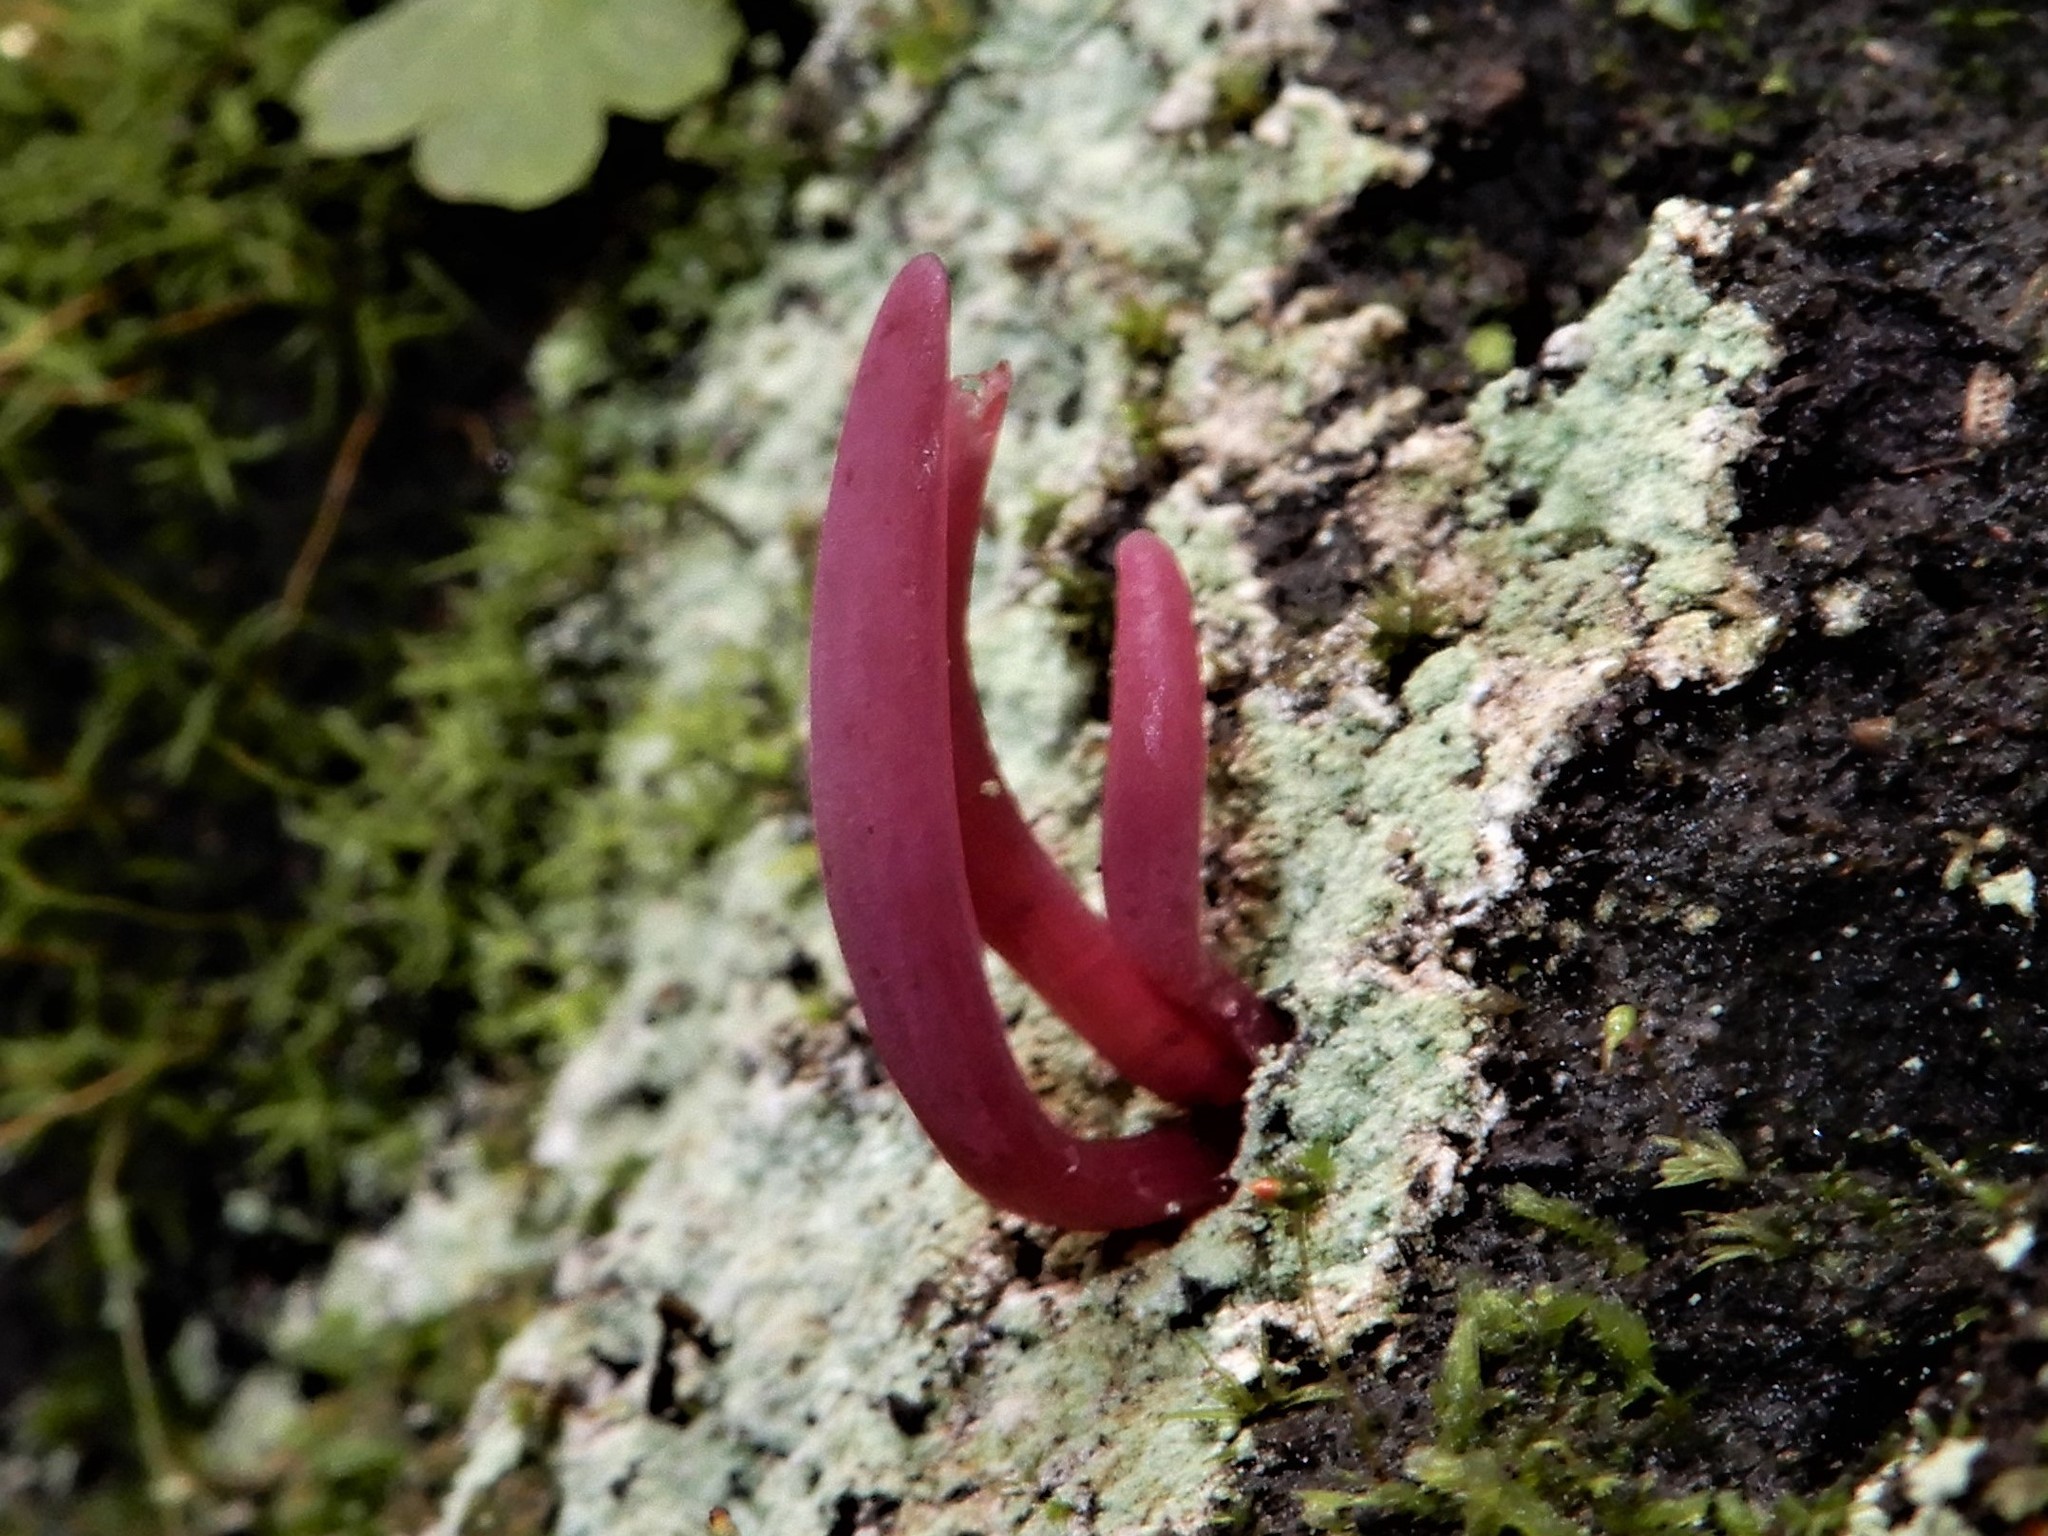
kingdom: Fungi
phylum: Basidiomycota
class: Agaricomycetes
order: Agaricales
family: Clavariaceae
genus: Clavulinopsis
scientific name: Clavulinopsis corallinorosacea
